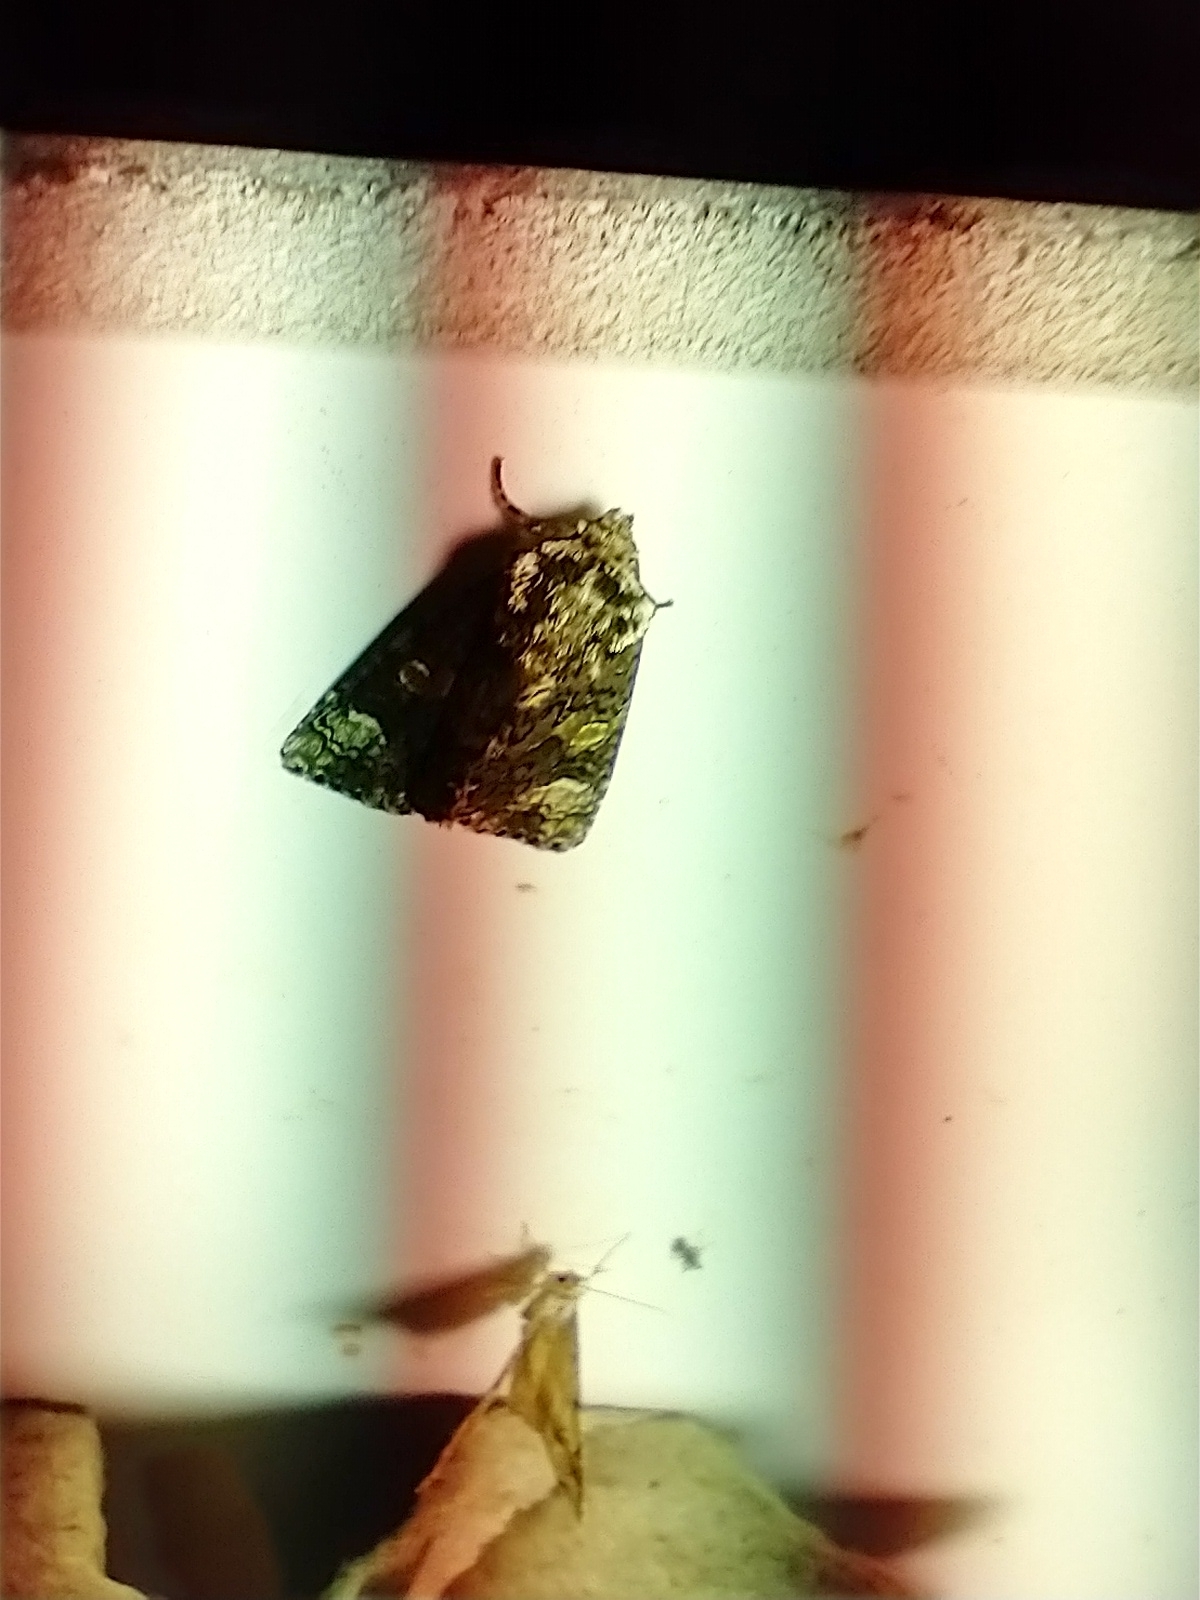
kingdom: Animalia
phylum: Arthropoda
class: Insecta
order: Lepidoptera
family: Noctuidae
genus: Craniophora
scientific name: Craniophora ligustri
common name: Coronet
